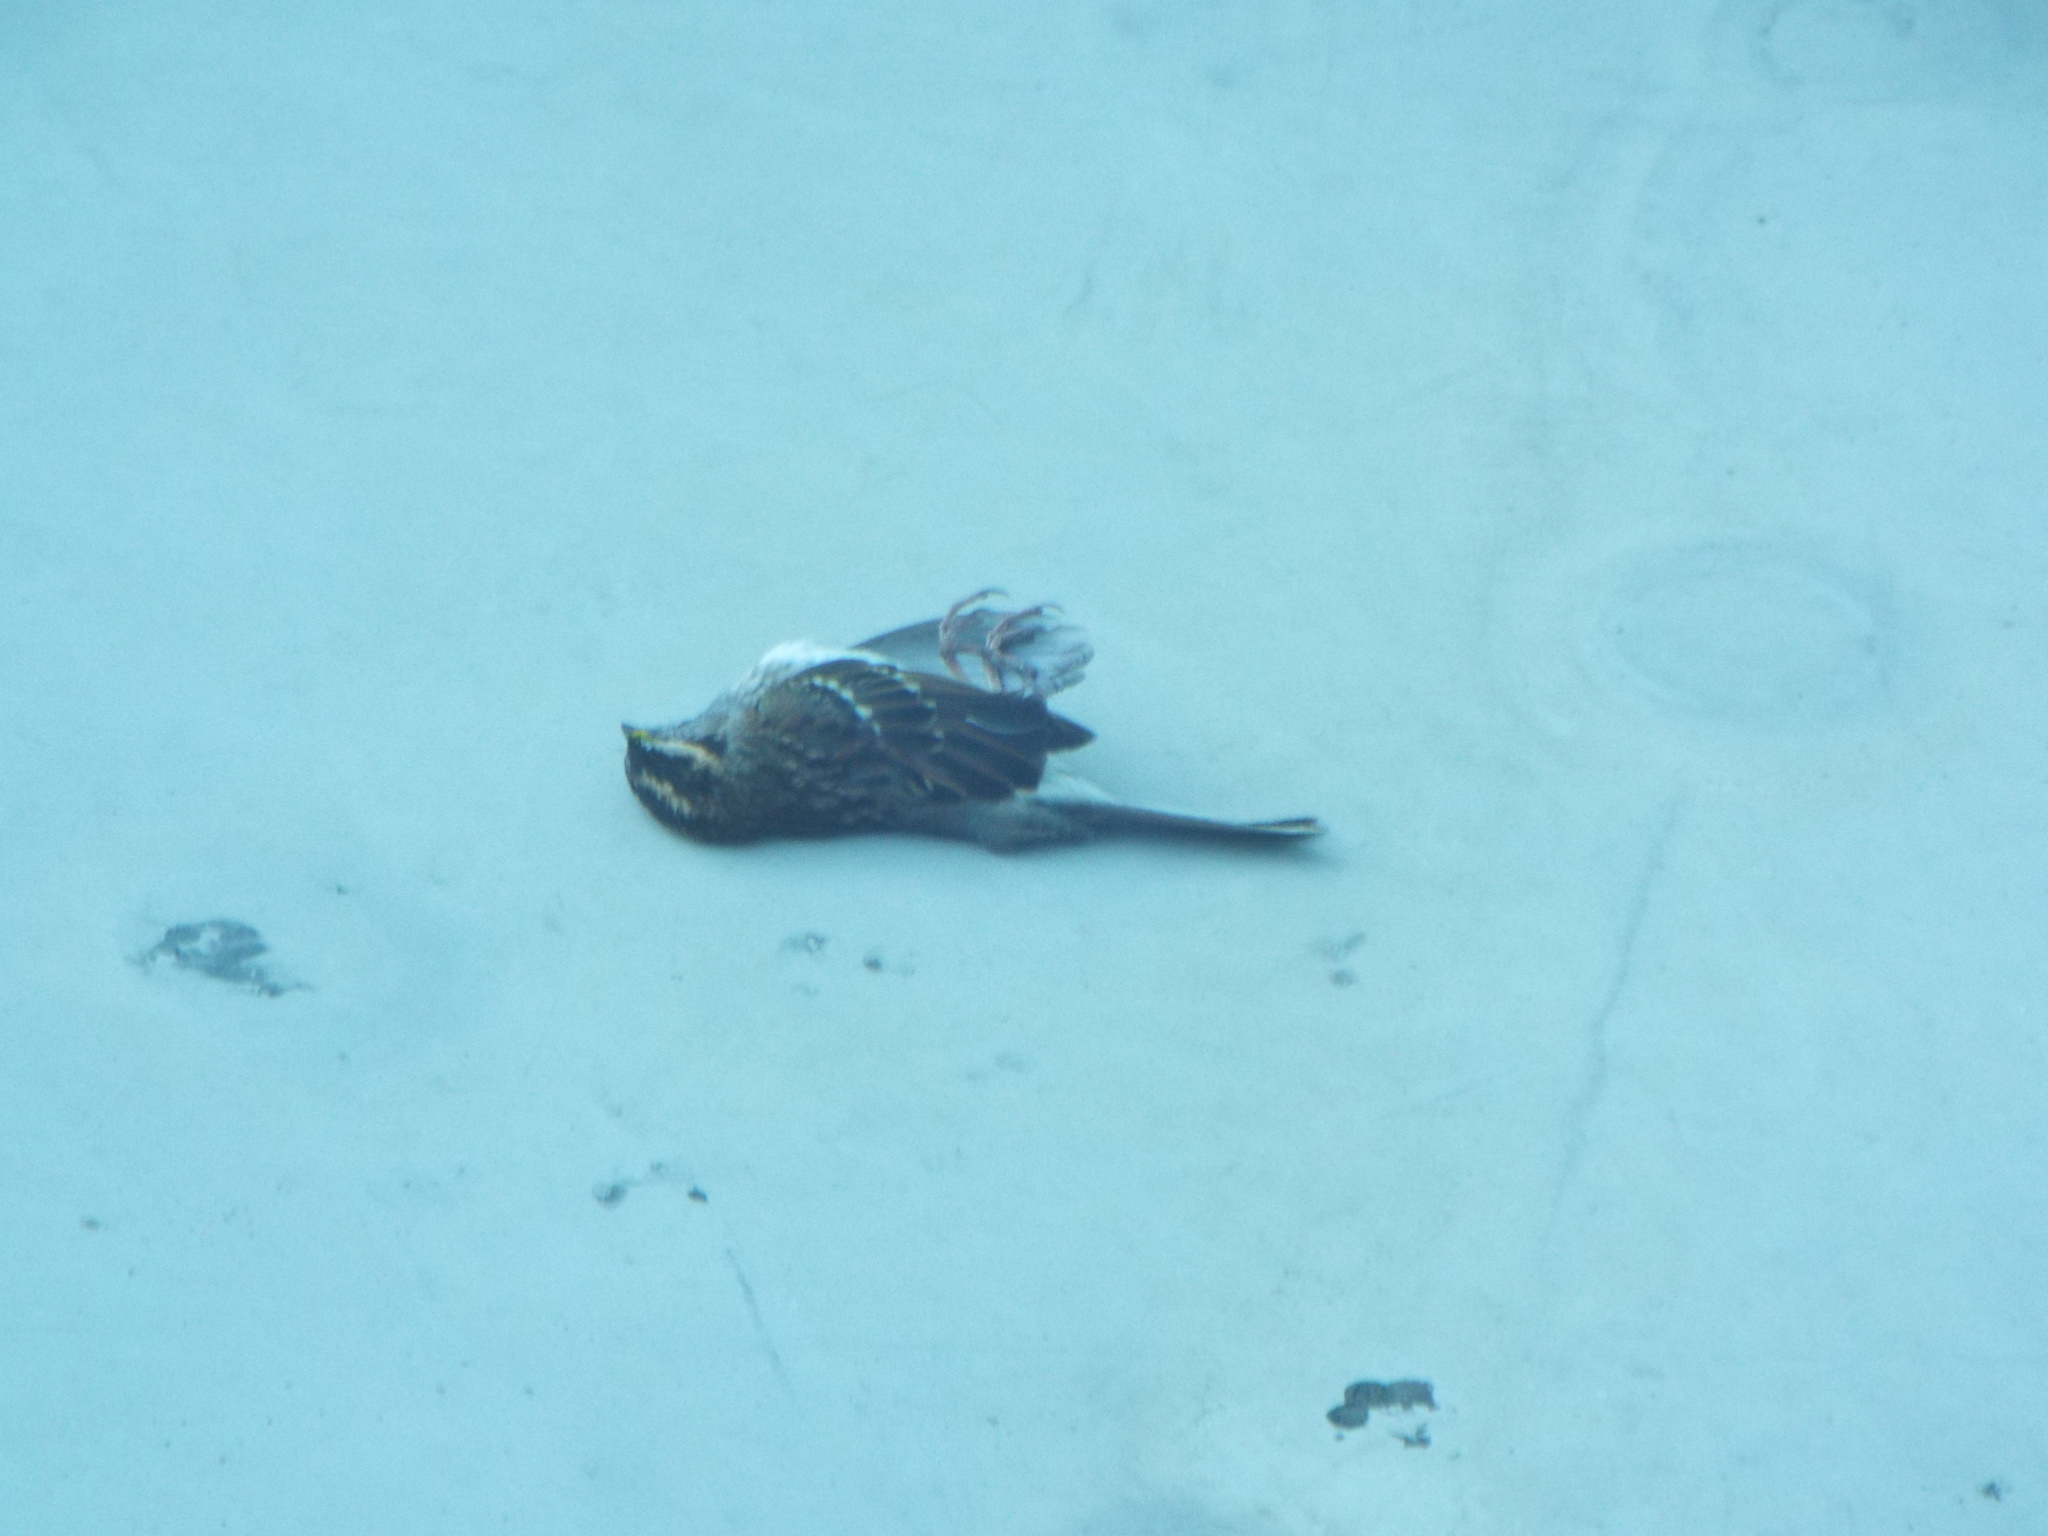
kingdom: Animalia
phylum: Chordata
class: Aves
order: Passeriformes
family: Passerellidae
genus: Zonotrichia
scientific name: Zonotrichia albicollis
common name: White-throated sparrow
